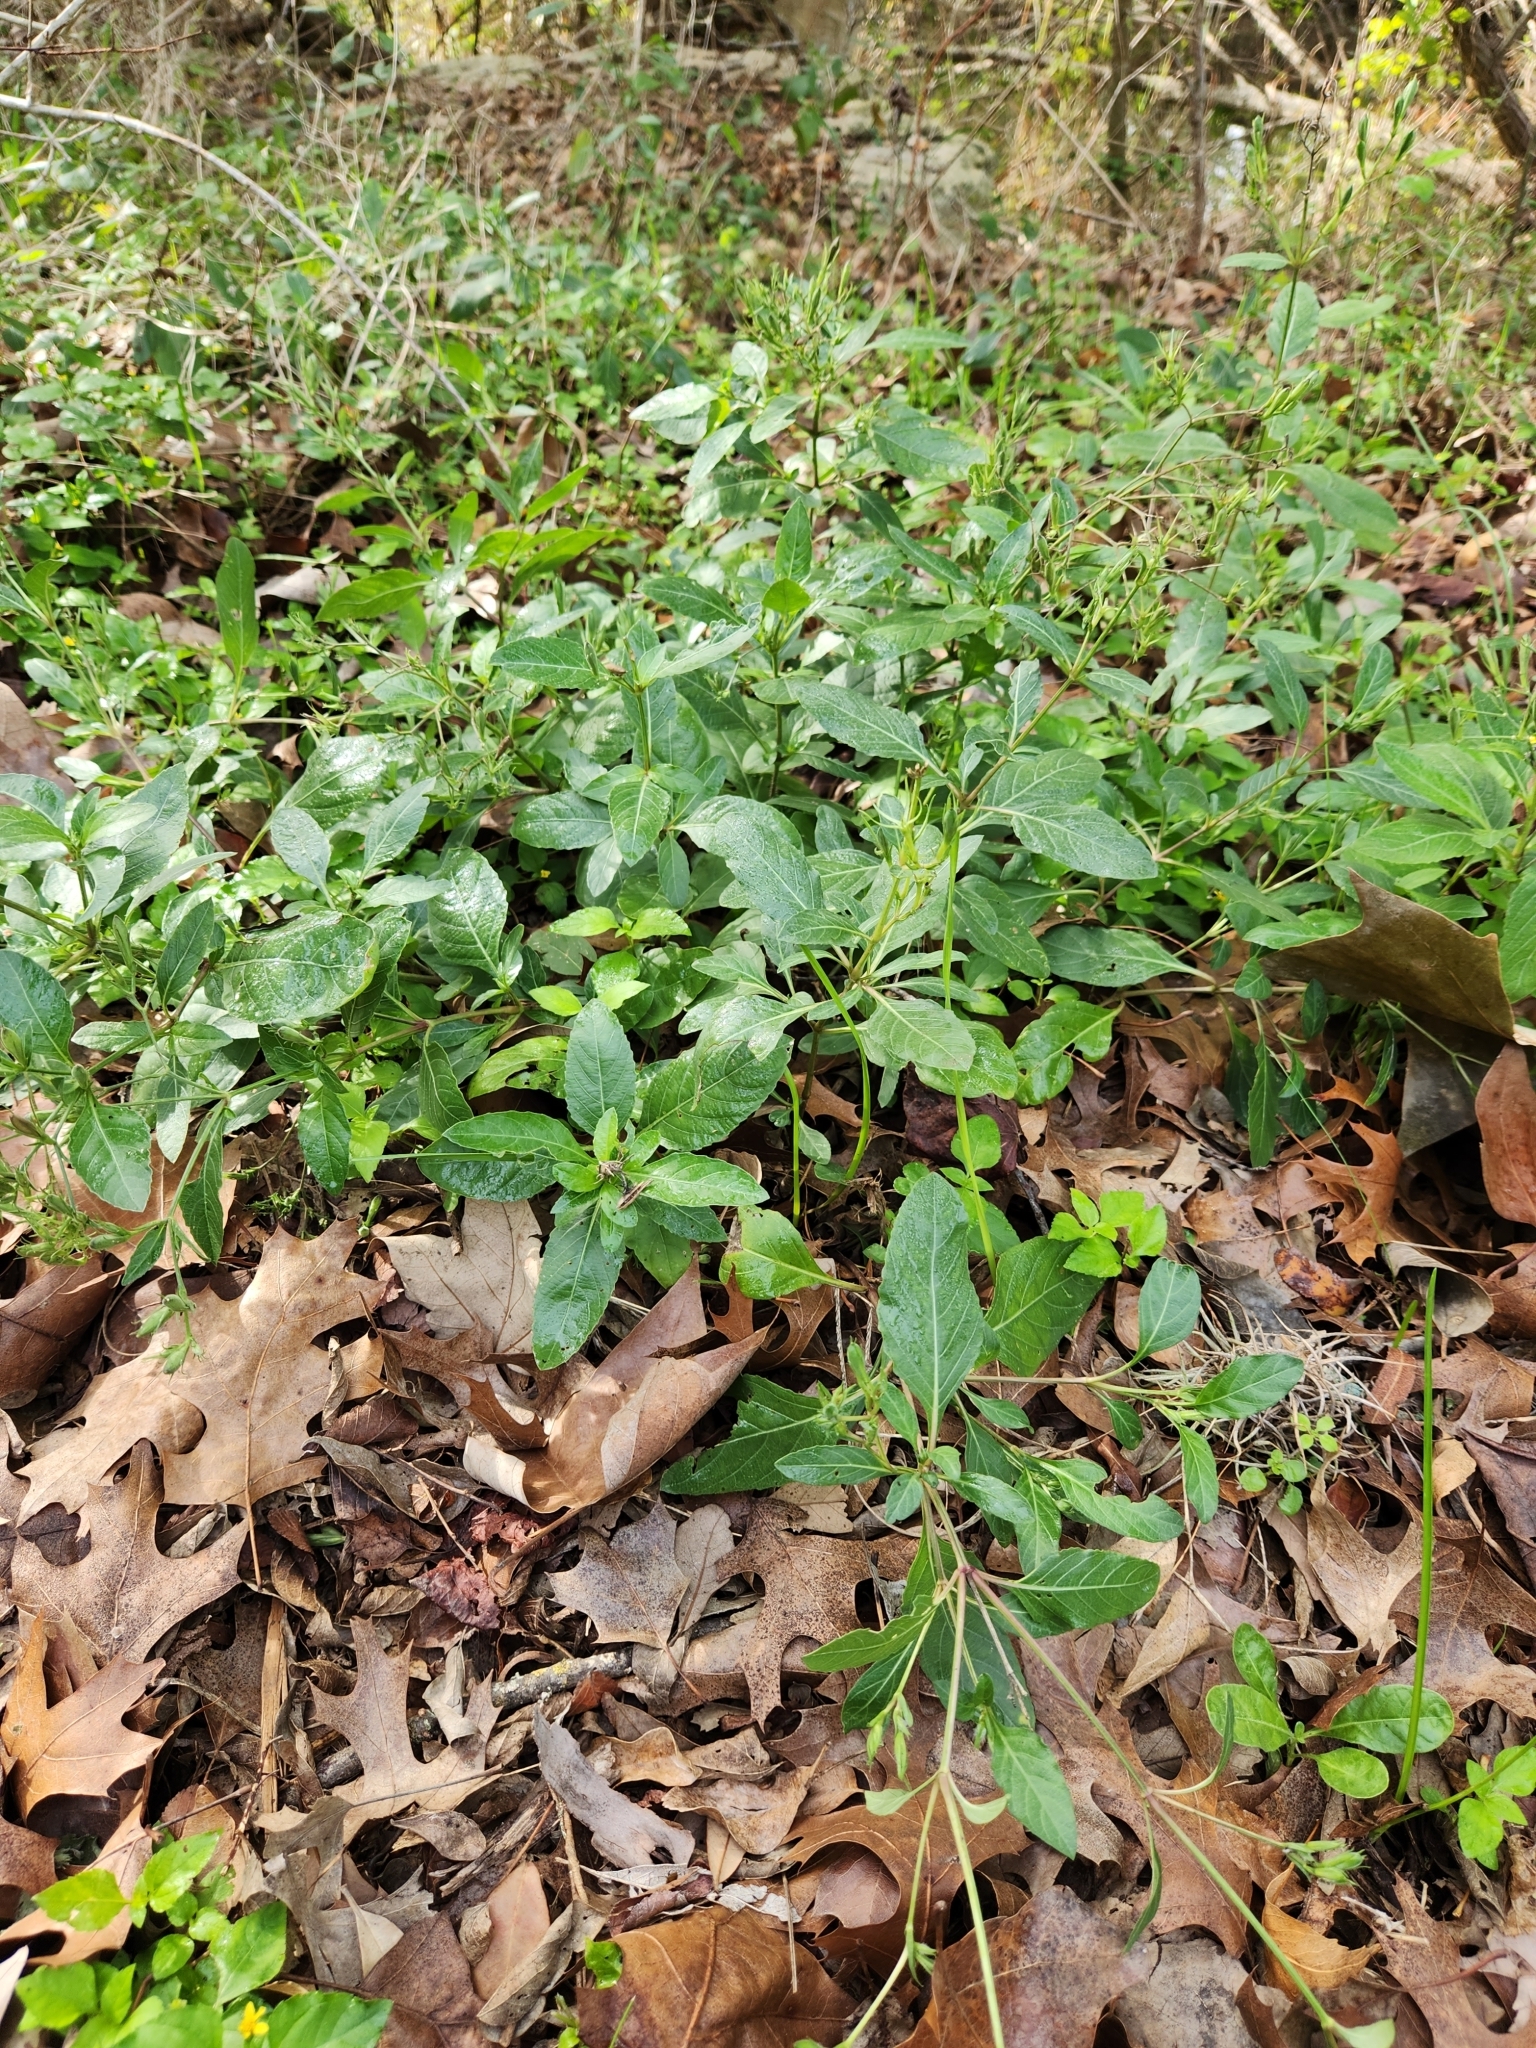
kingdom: Plantae
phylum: Tracheophyta
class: Magnoliopsida
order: Lamiales
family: Acanthaceae
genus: Ruellia
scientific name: Ruellia ciliatiflora
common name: Hairyflower wild petunia
